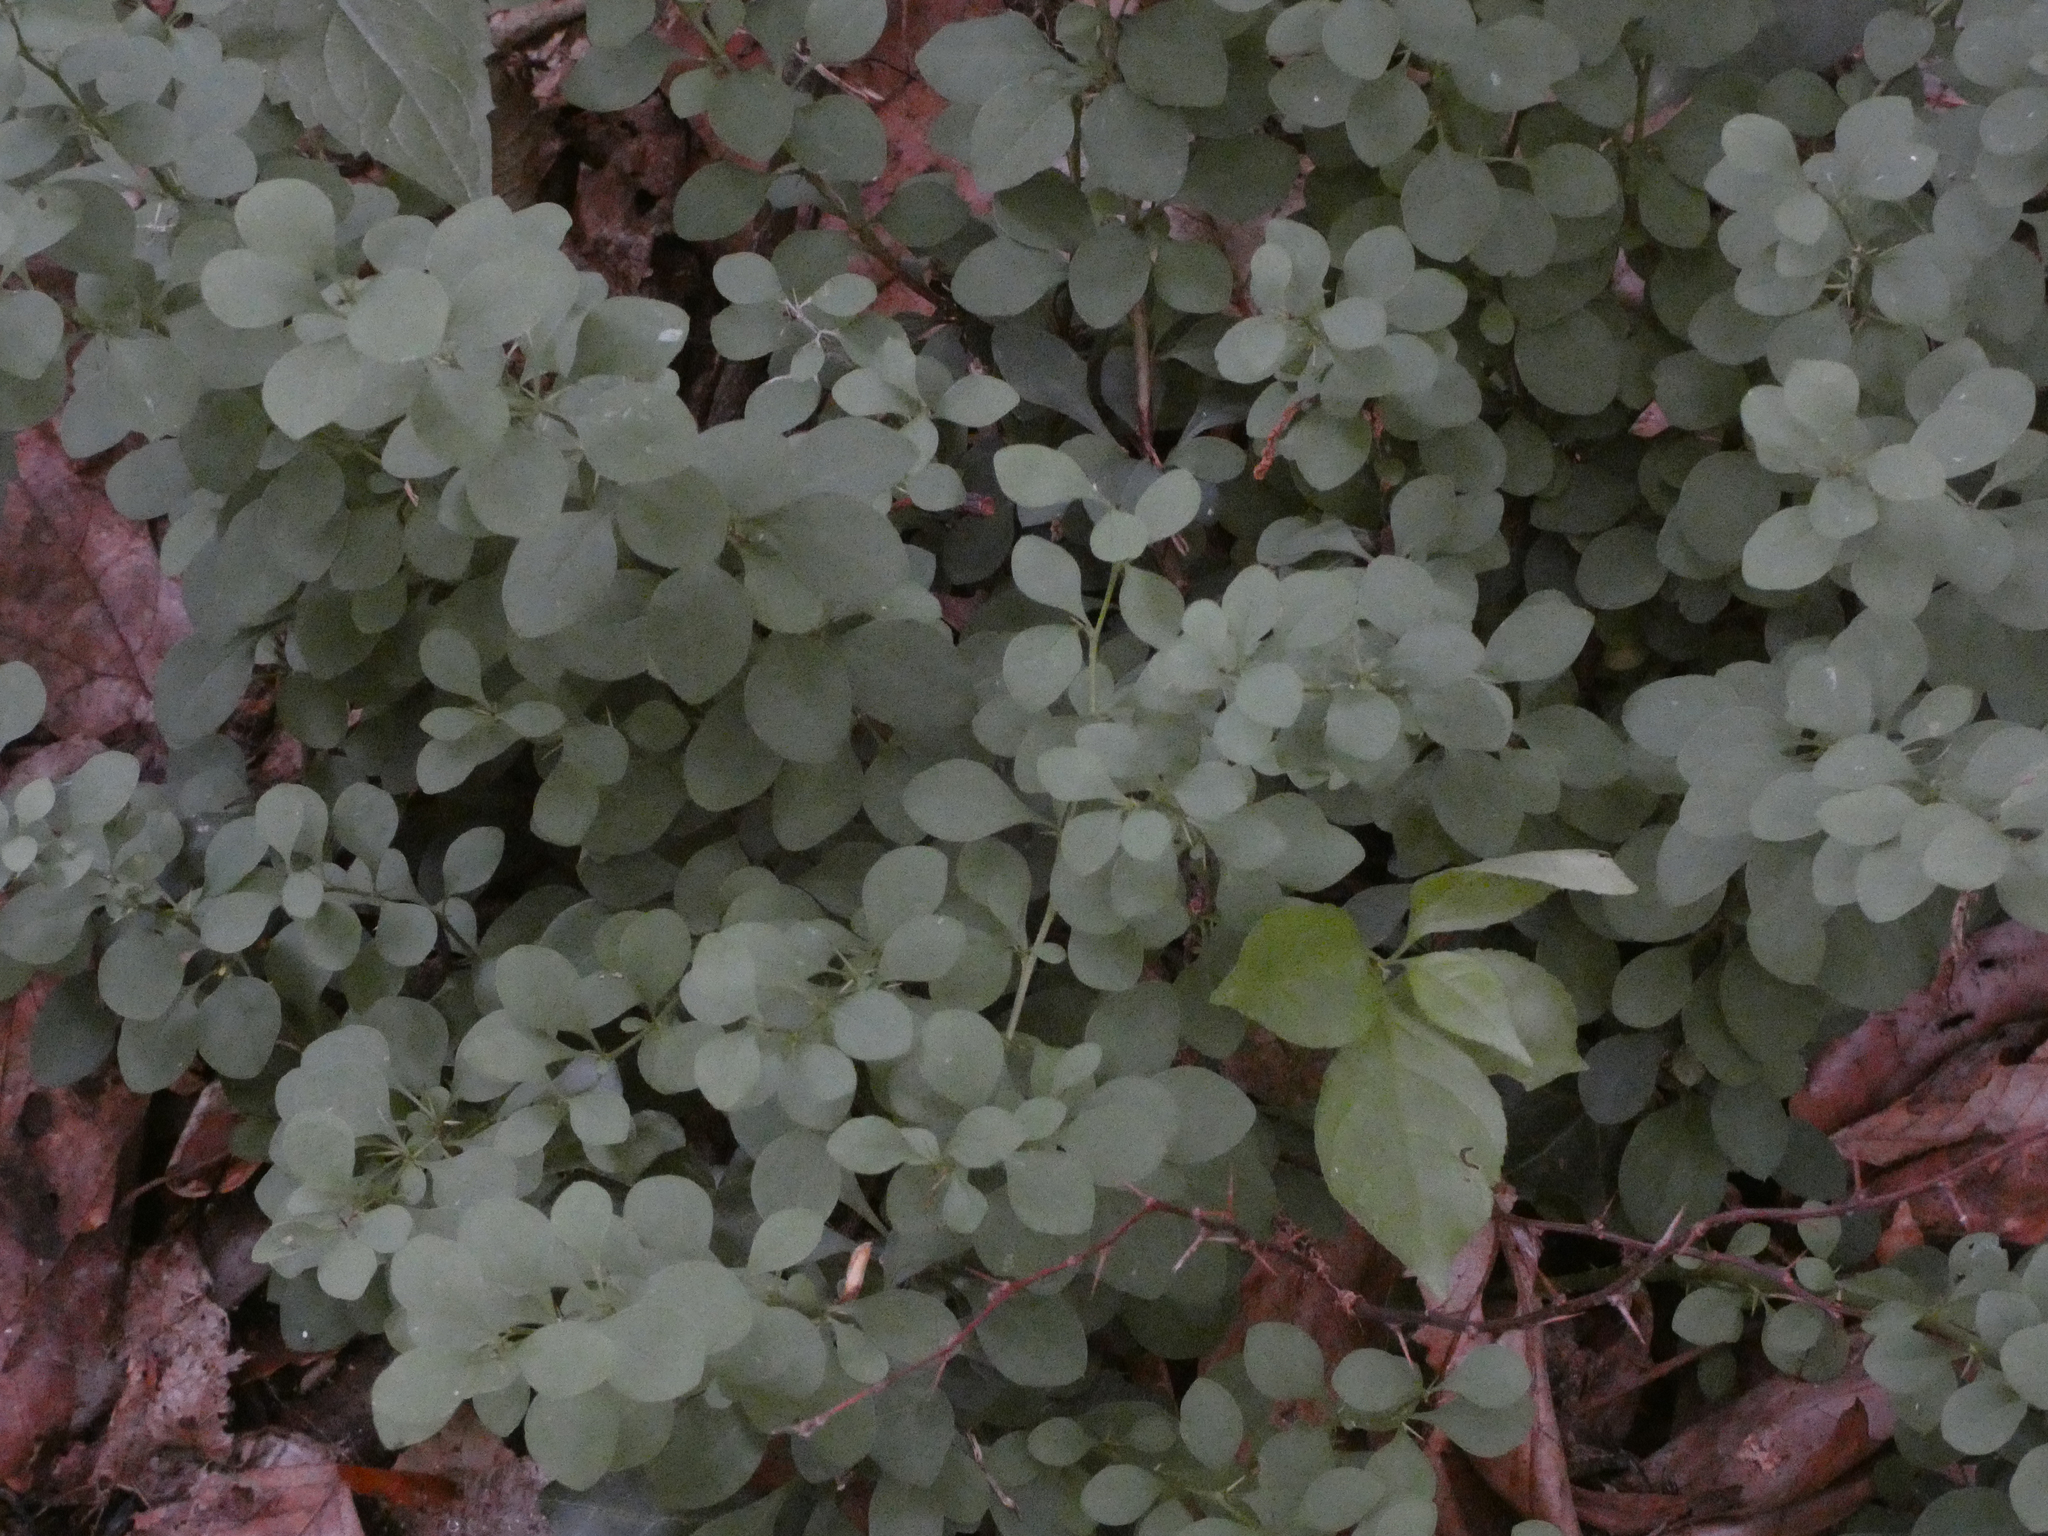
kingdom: Plantae
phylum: Tracheophyta
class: Magnoliopsida
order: Ranunculales
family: Berberidaceae
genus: Berberis
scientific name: Berberis thunbergii
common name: Japanese barberry
